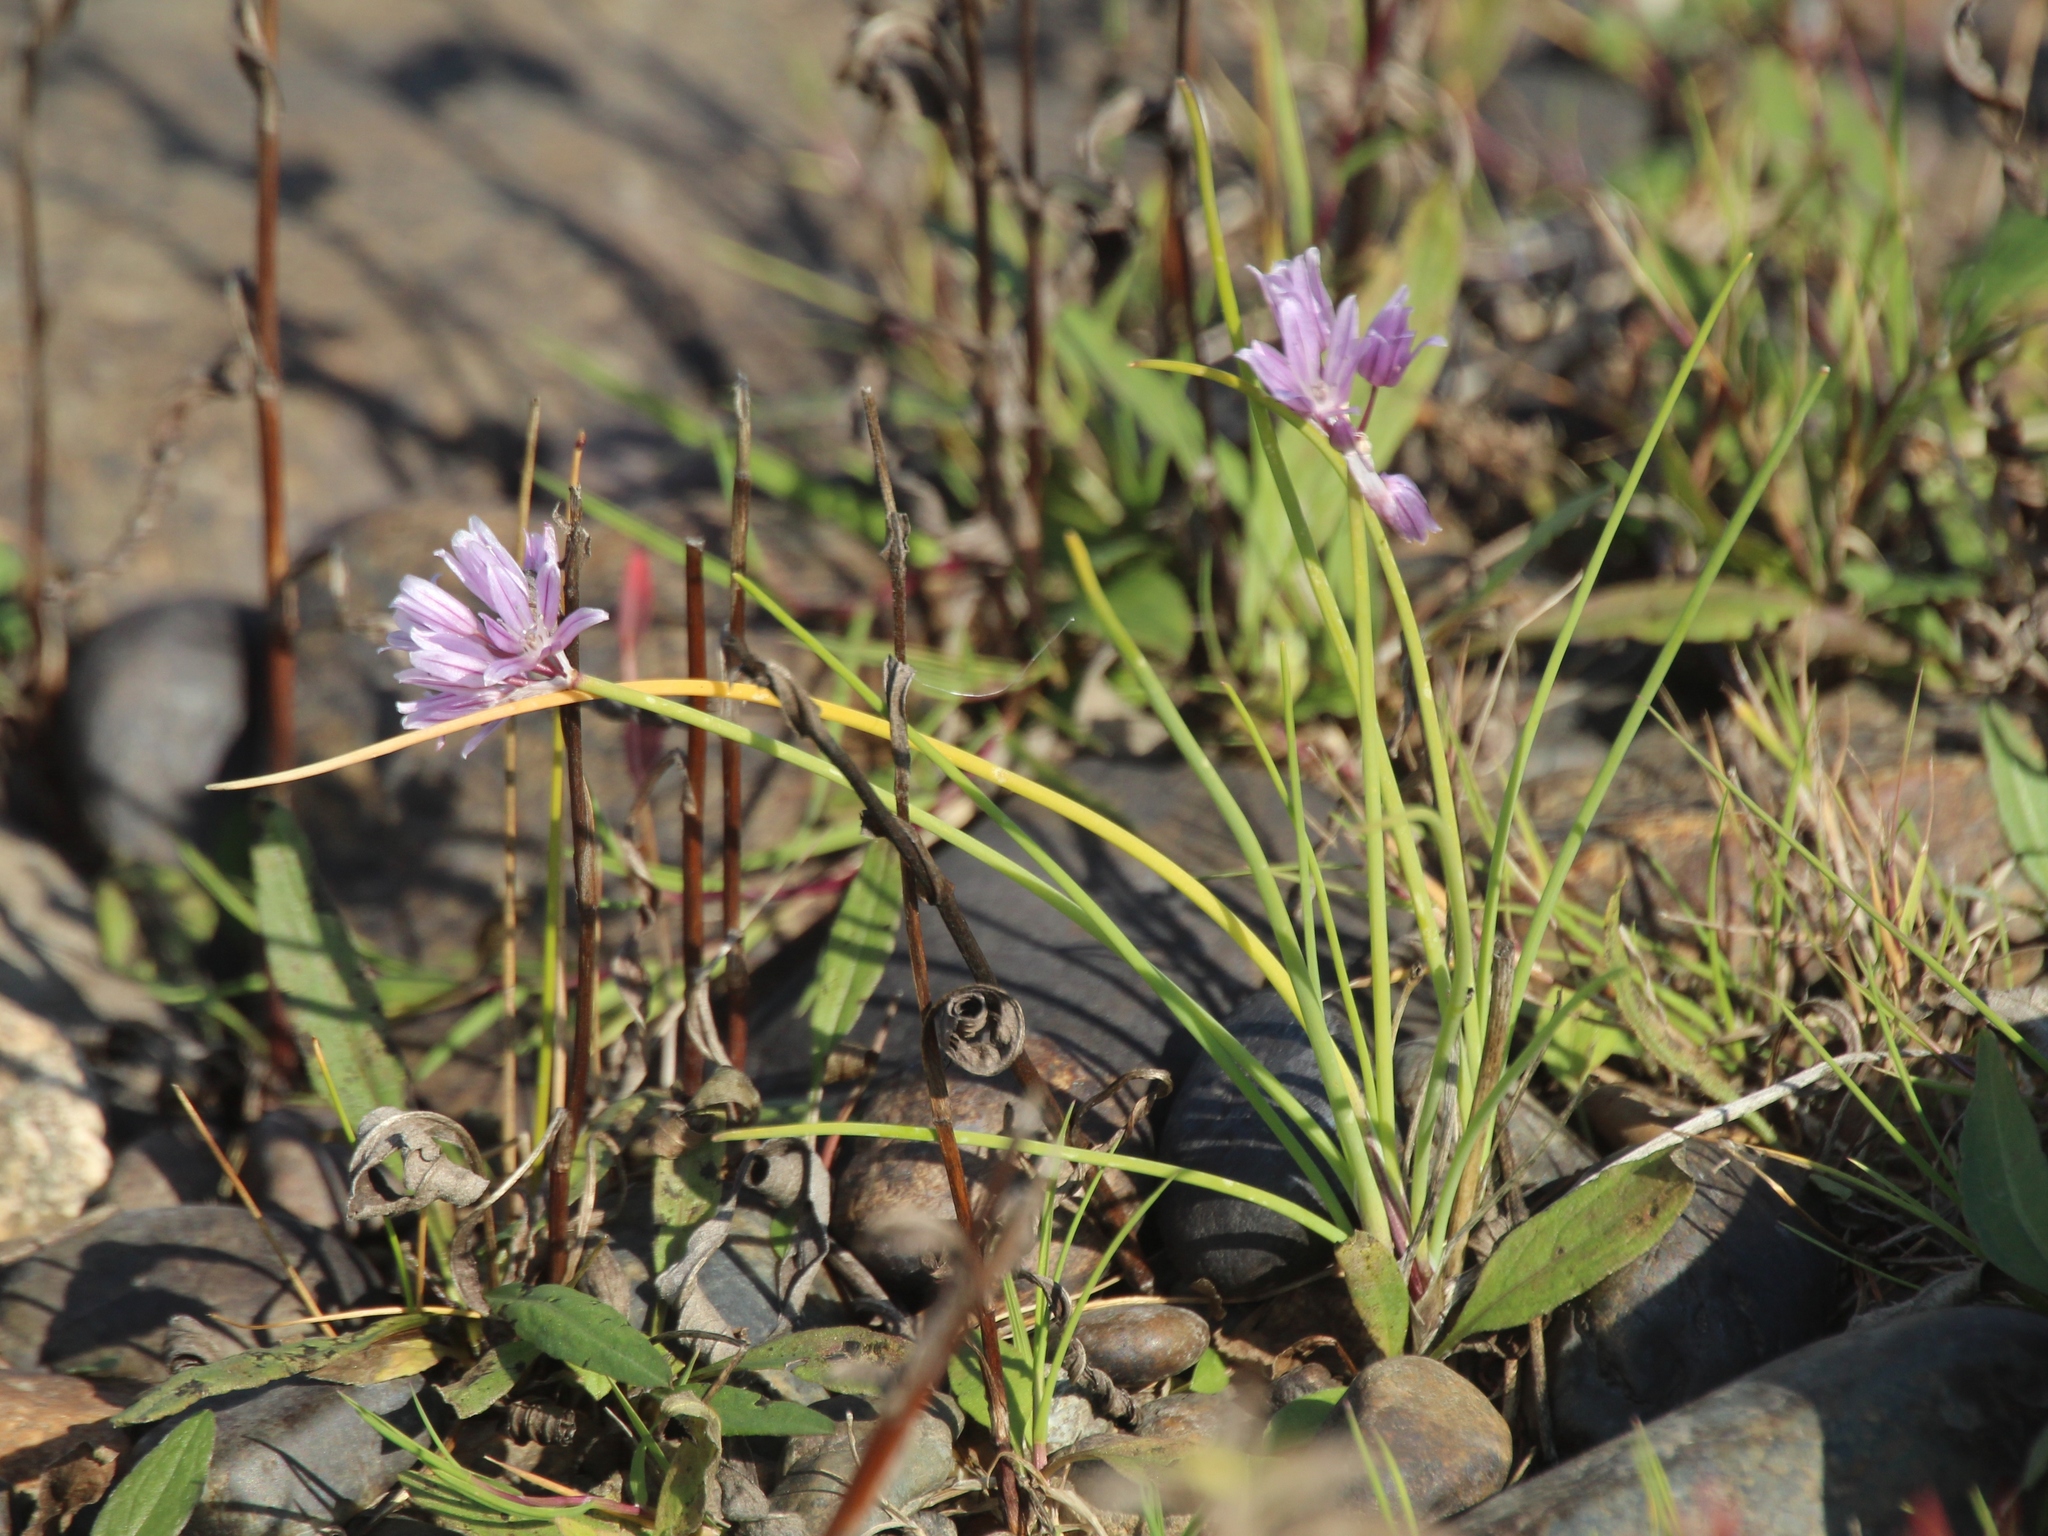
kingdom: Plantae
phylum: Tracheophyta
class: Liliopsida
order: Asparagales
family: Amaryllidaceae
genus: Allium
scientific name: Allium schoenoprasum
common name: Chives
